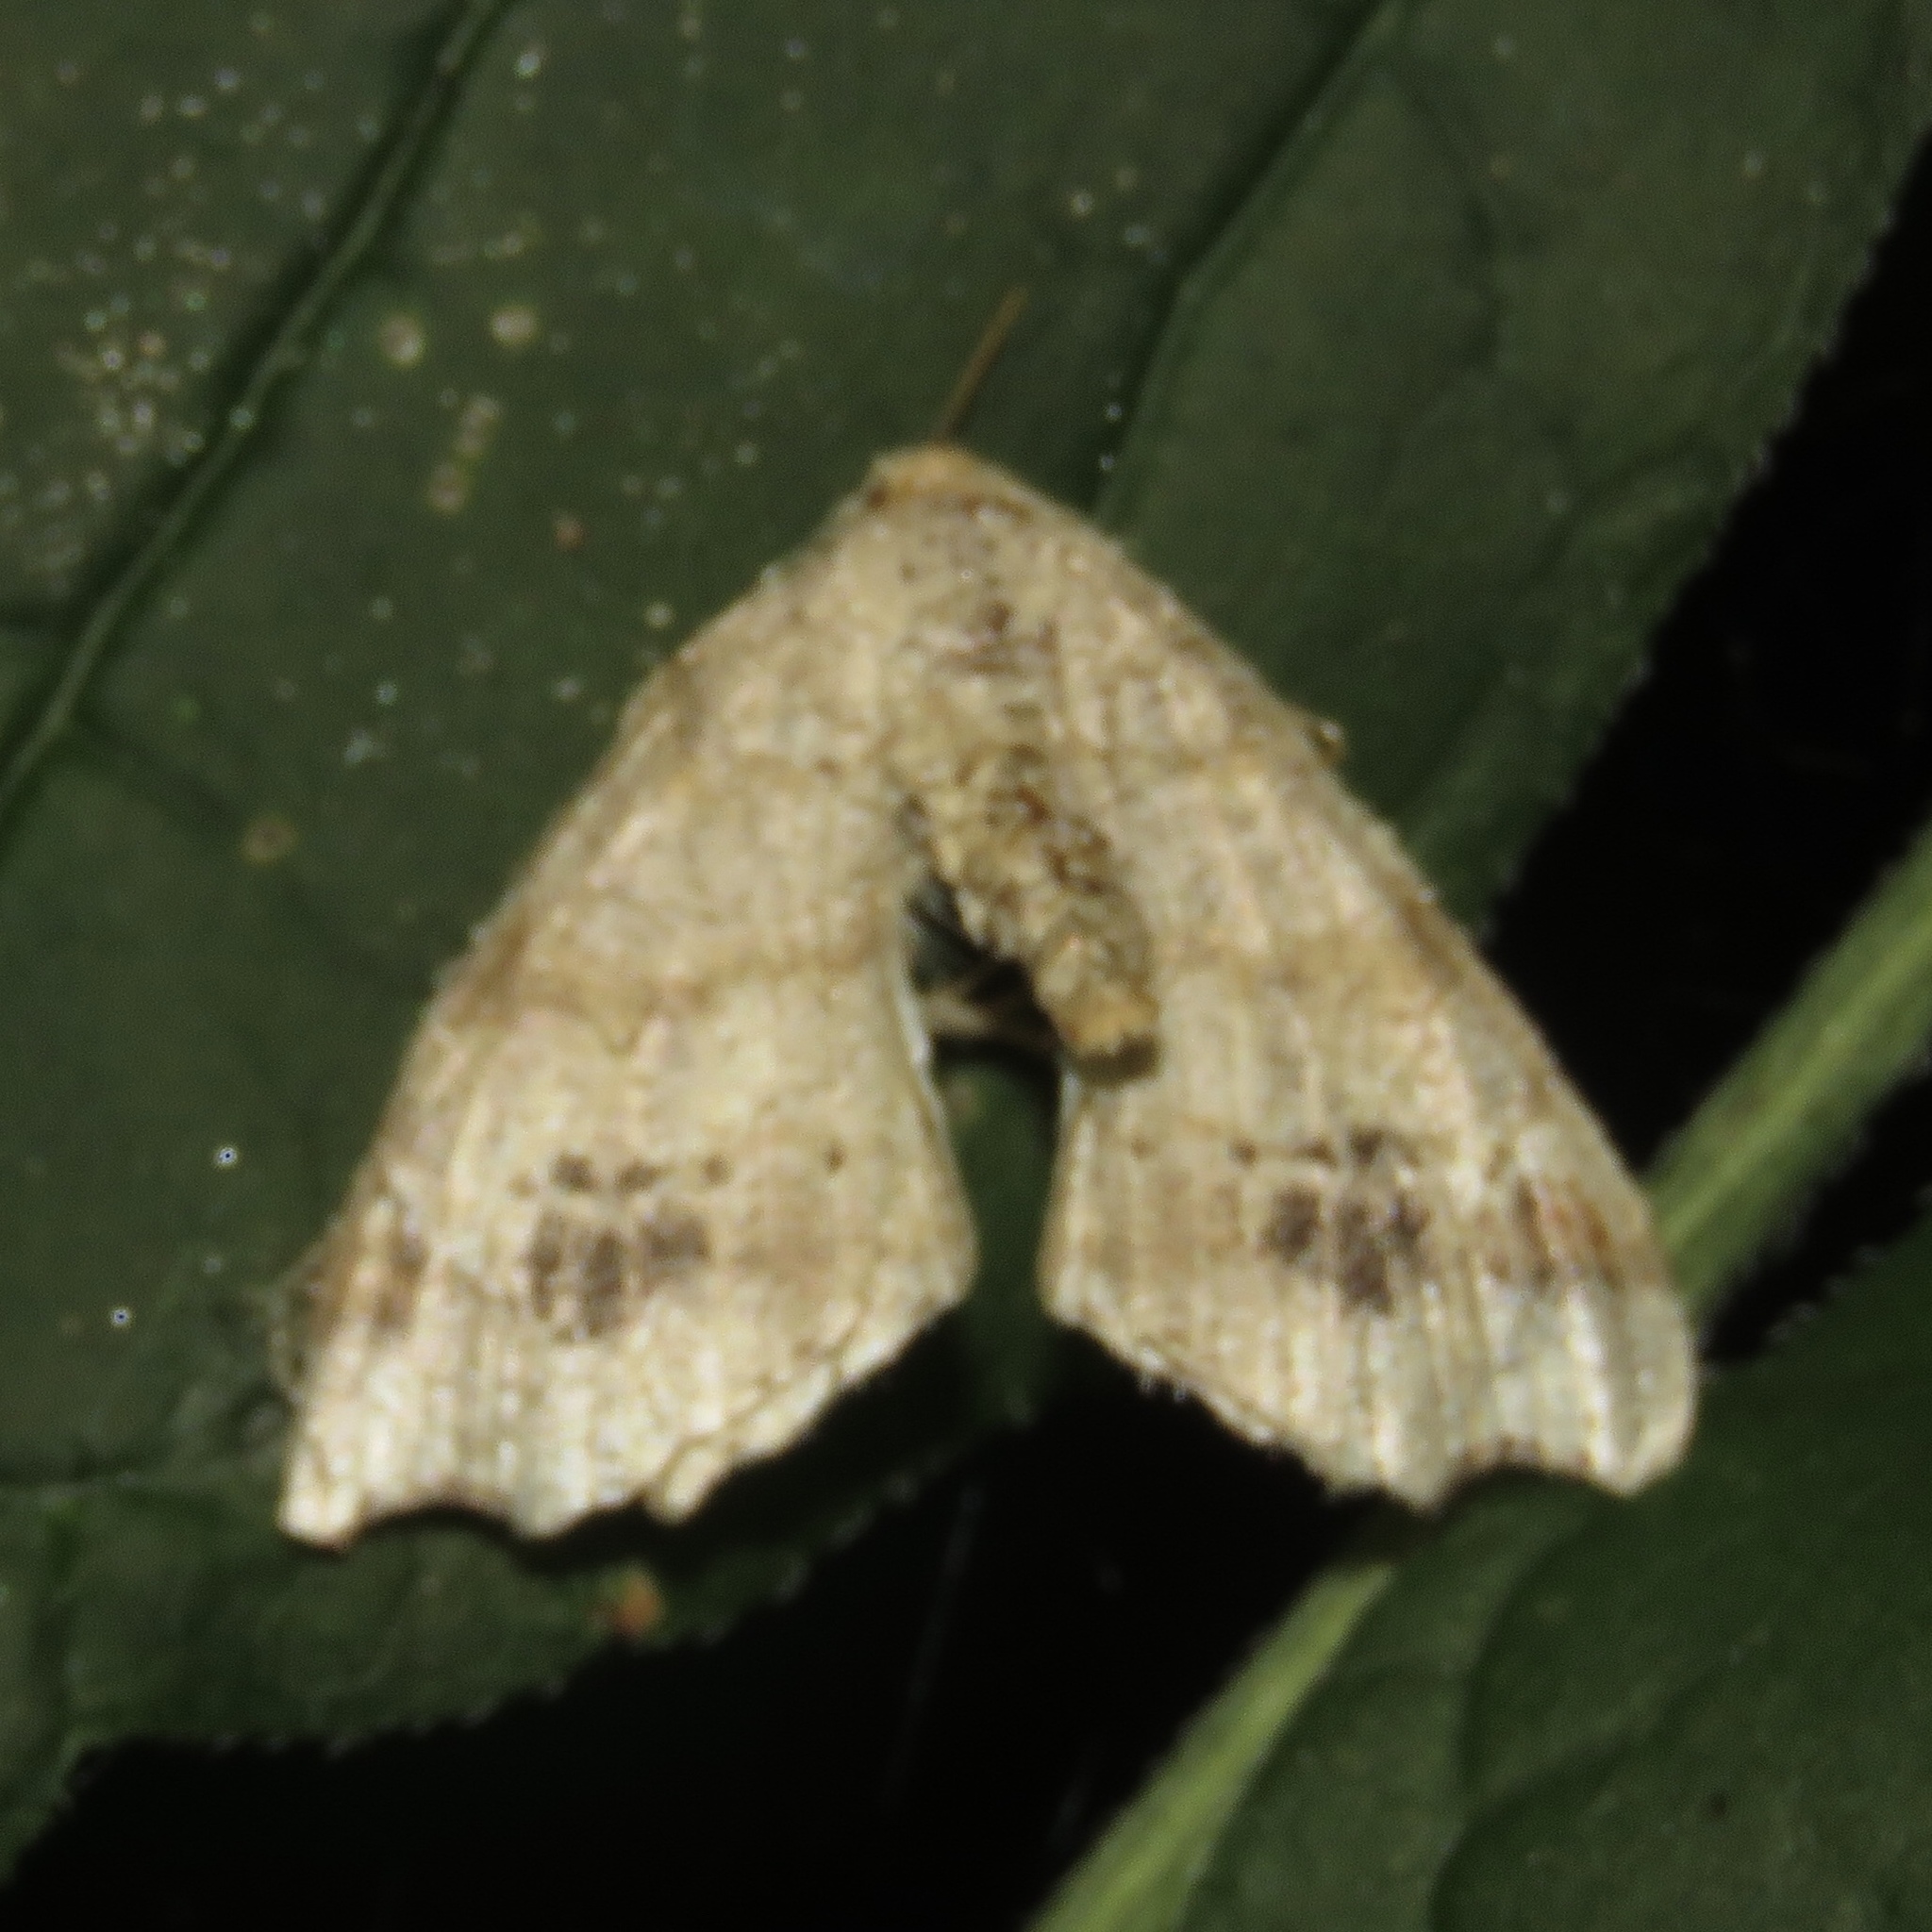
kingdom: Animalia
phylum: Arthropoda
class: Insecta
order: Lepidoptera
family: Geometridae
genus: Macaria
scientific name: Macaria aemulataria
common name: Common angle
